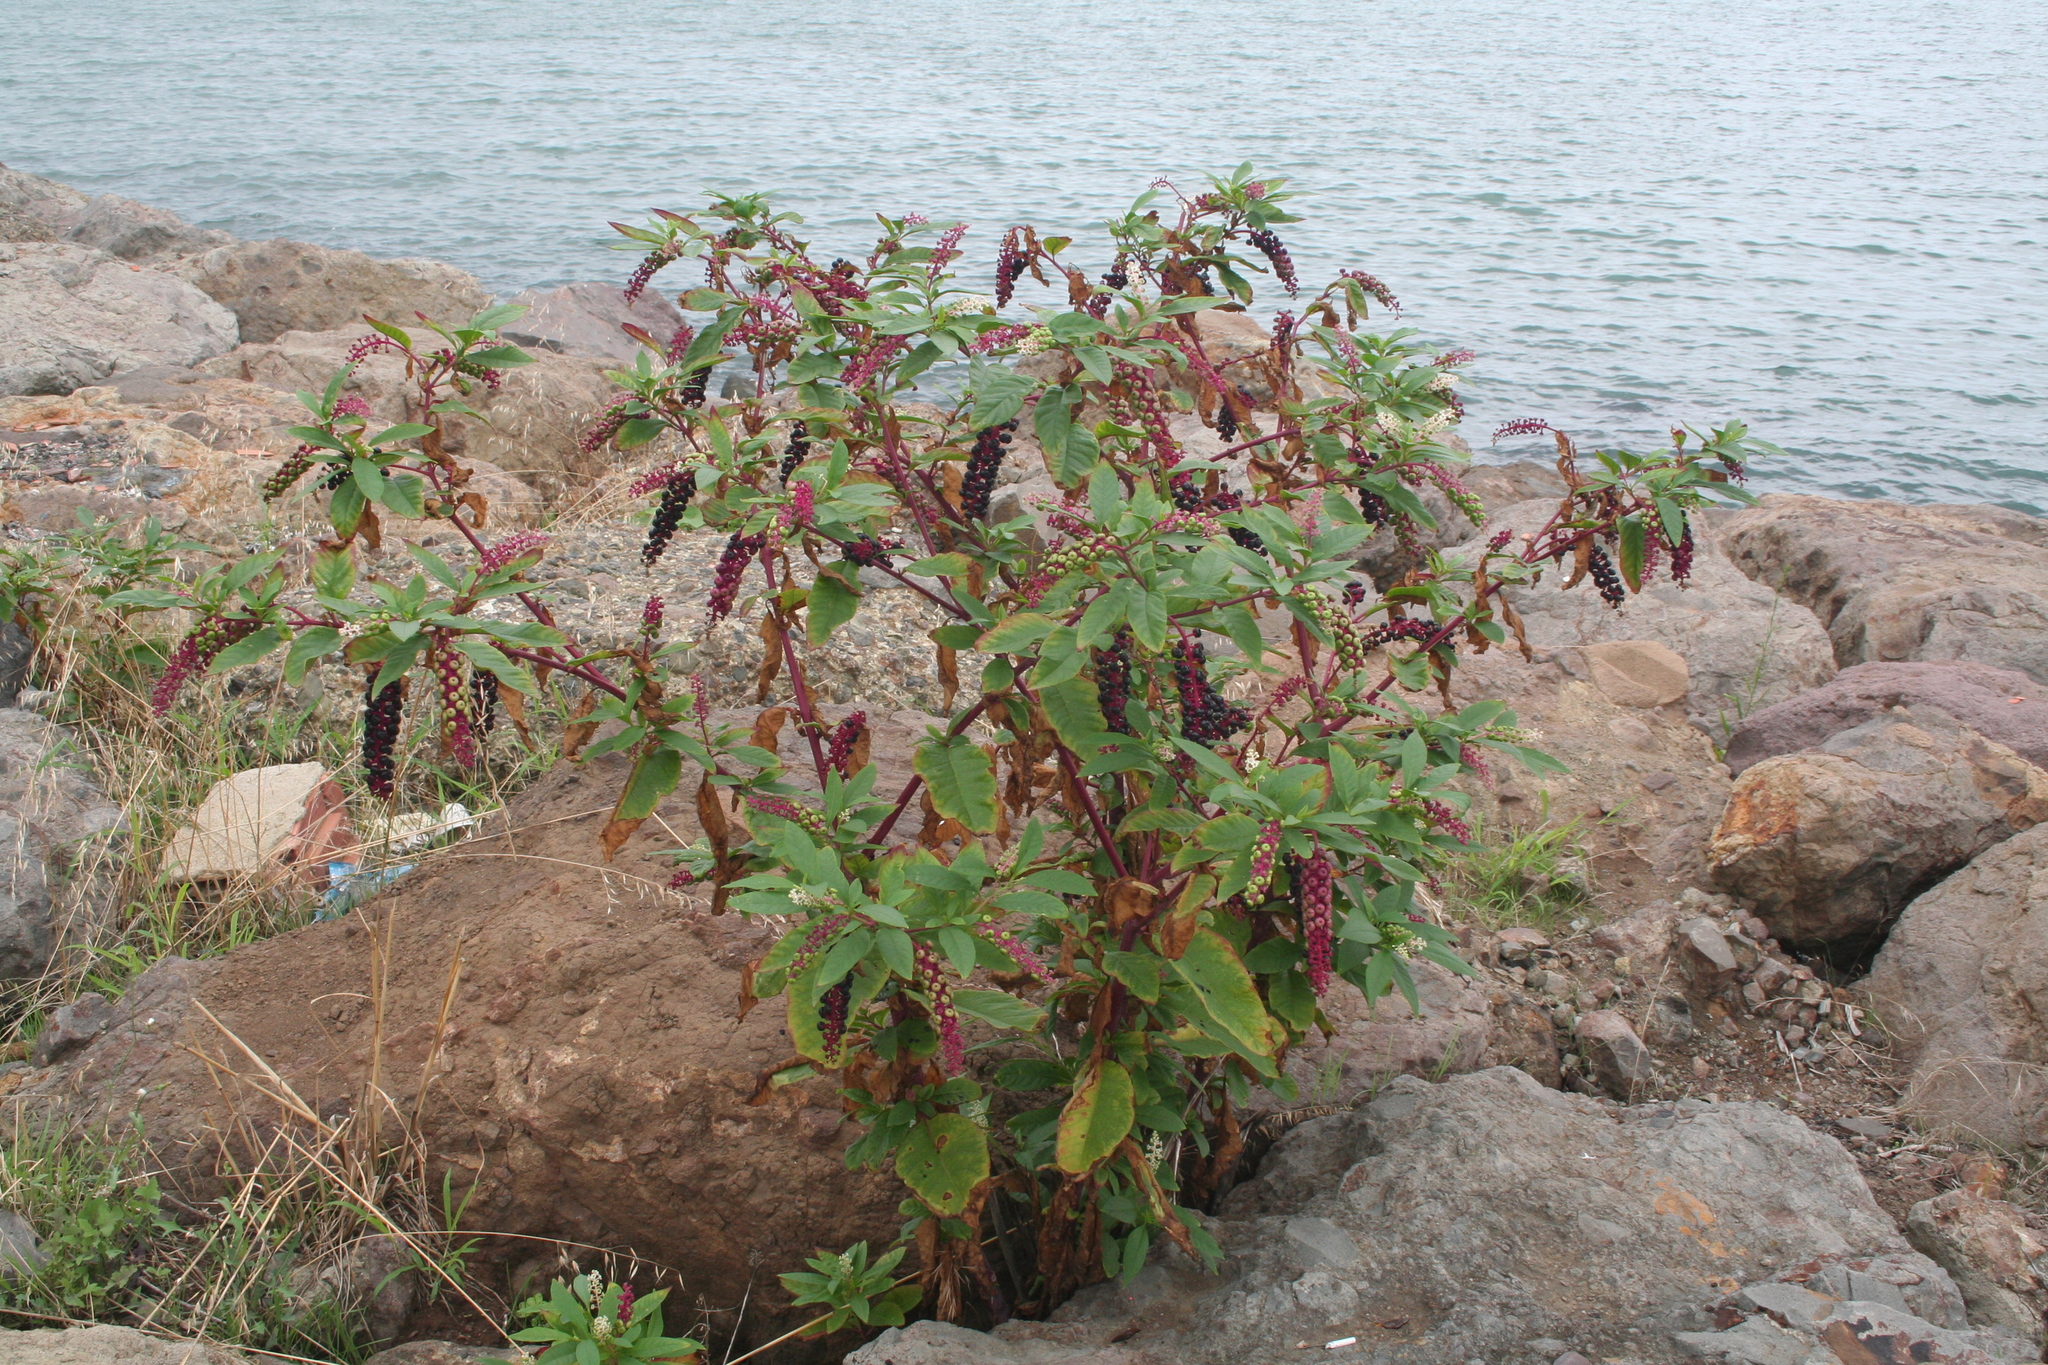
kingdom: Plantae
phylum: Tracheophyta
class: Magnoliopsida
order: Caryophyllales
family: Phytolaccaceae
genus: Phytolacca
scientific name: Phytolacca americana
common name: American pokeweed
